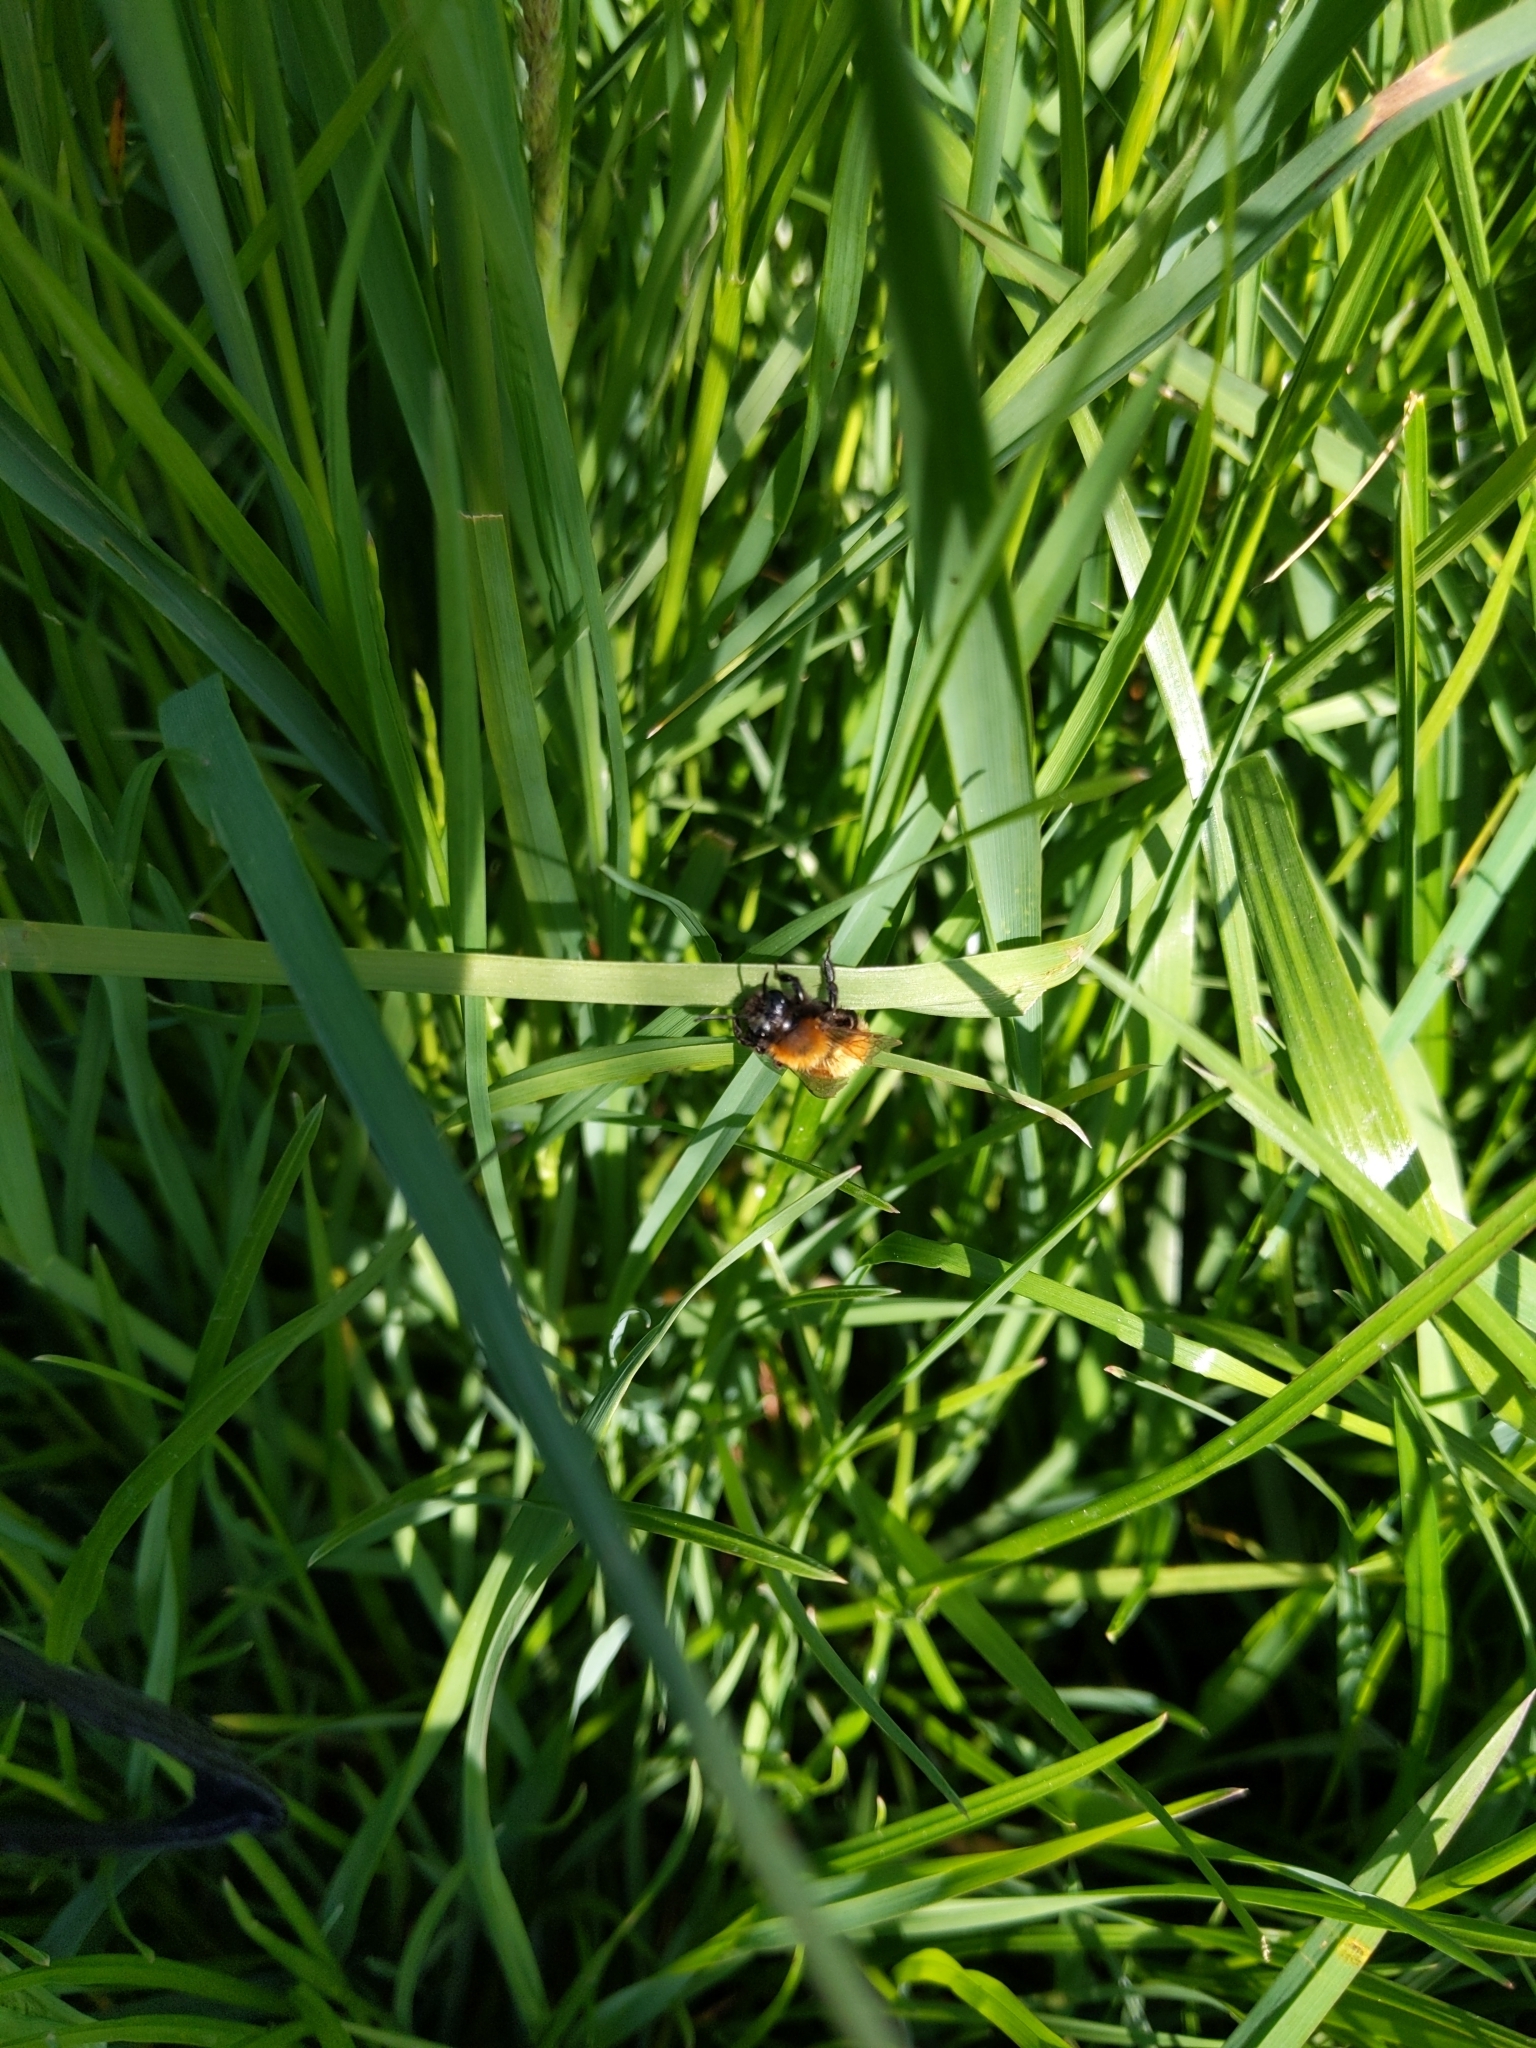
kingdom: Animalia
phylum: Arthropoda
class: Insecta
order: Hymenoptera
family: Andrenidae
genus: Andrena
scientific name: Andrena fulva
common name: Tawny mining bee
